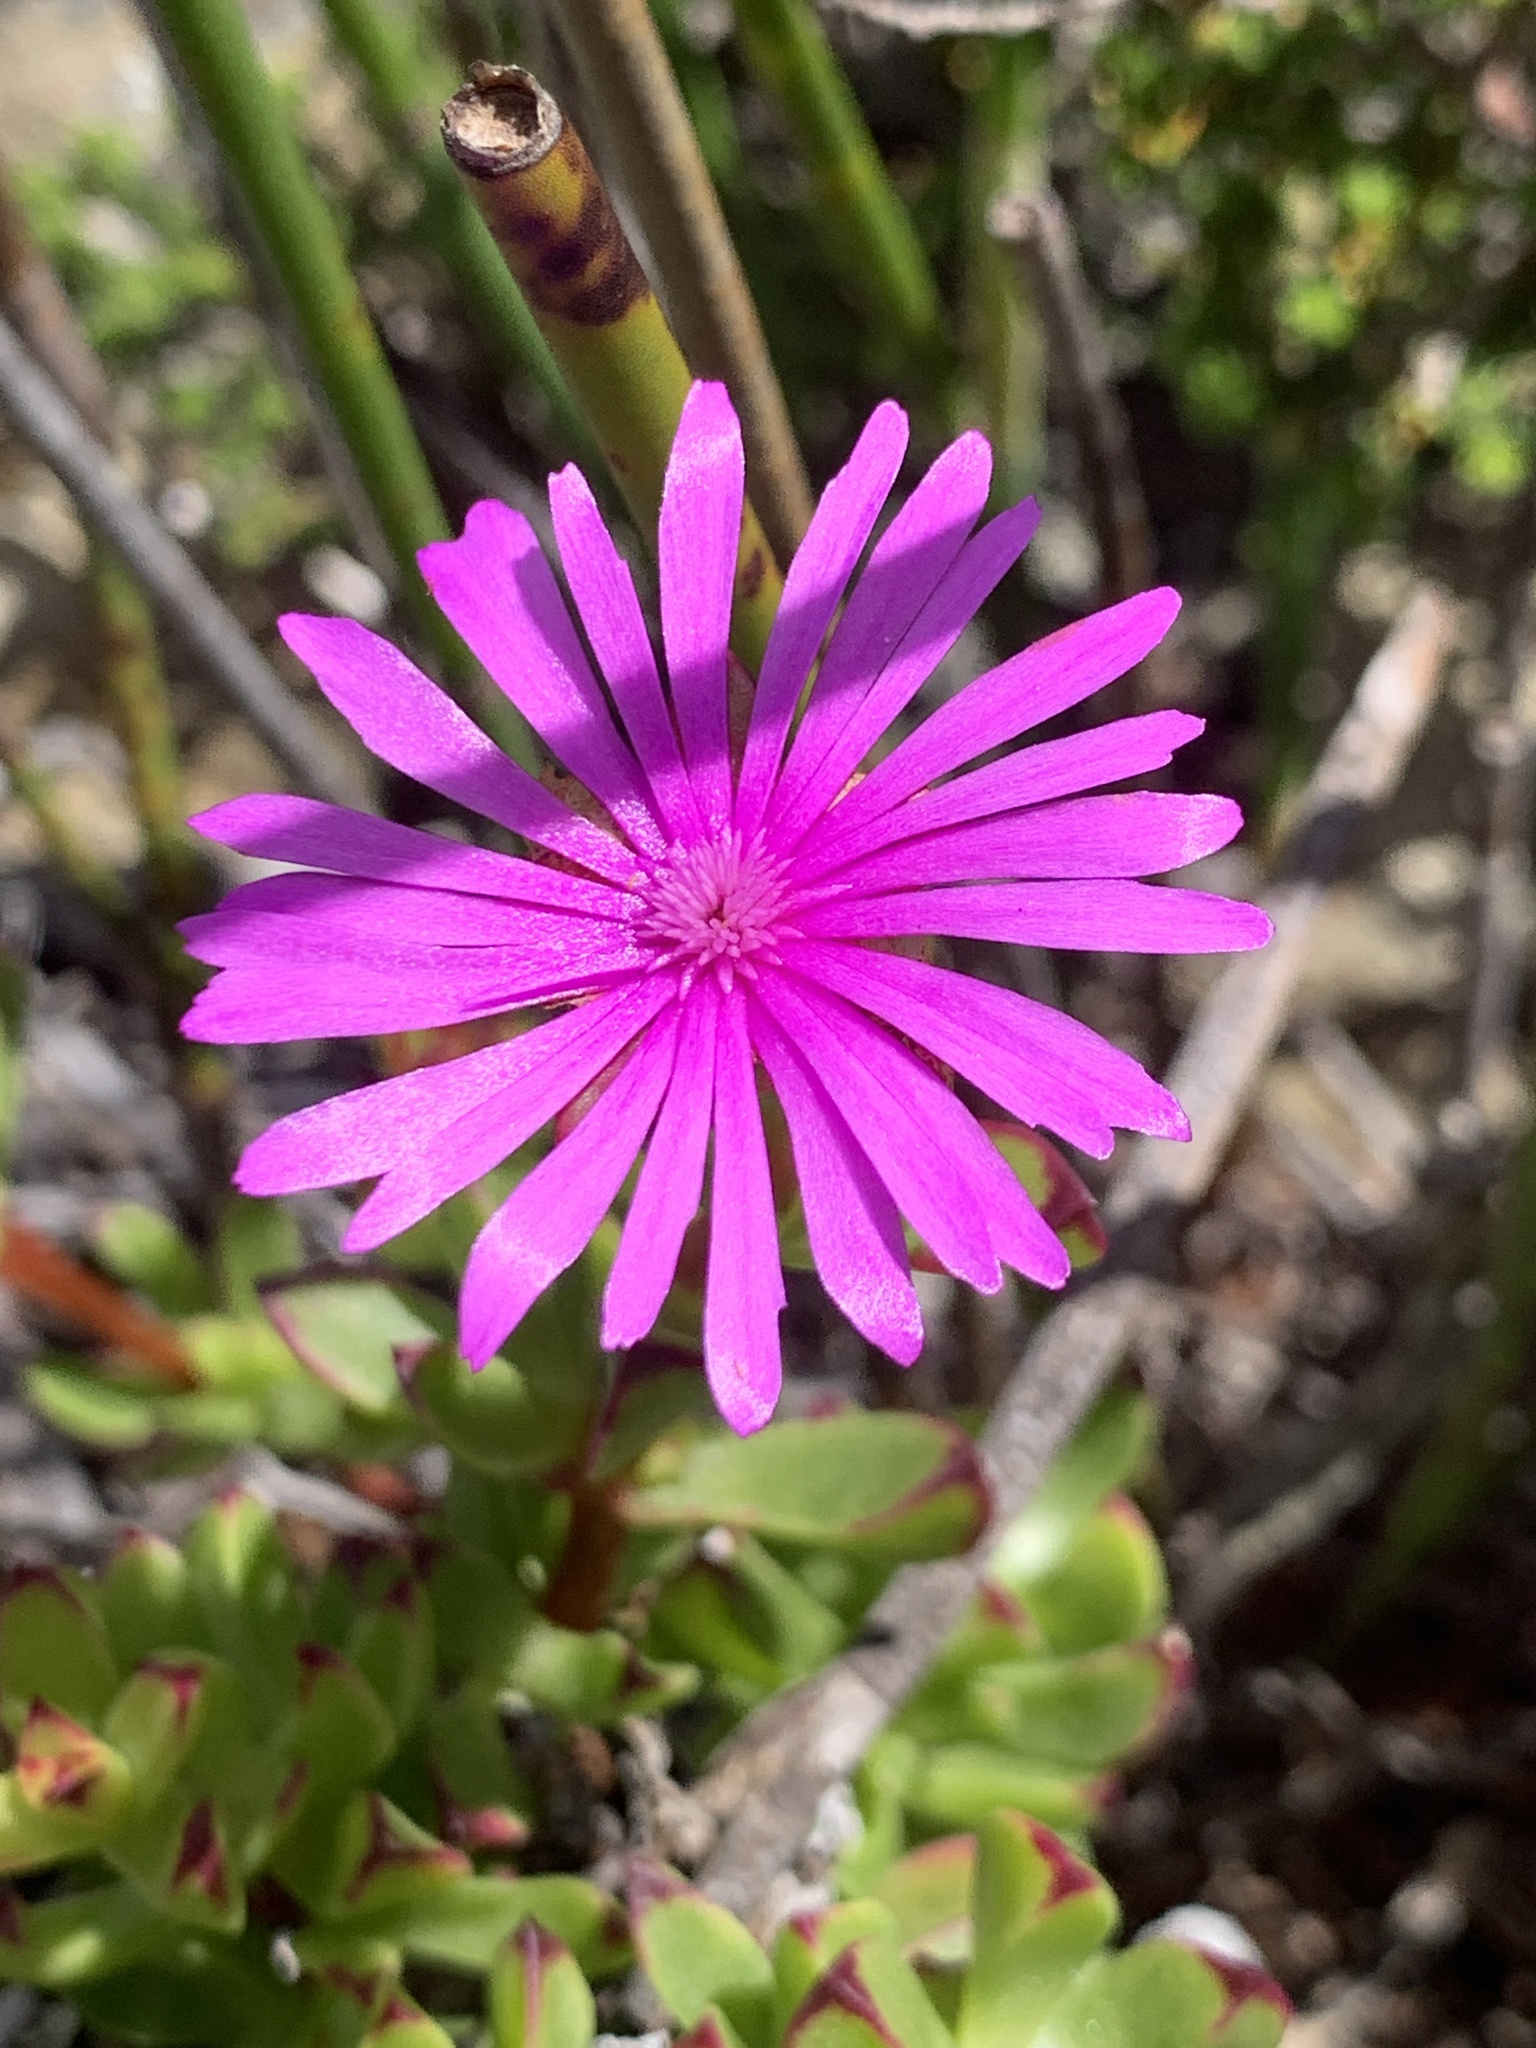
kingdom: Plantae
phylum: Tracheophyta
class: Magnoliopsida
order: Caryophyllales
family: Aizoaceae
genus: Erepsia
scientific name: Erepsia inclaudens
